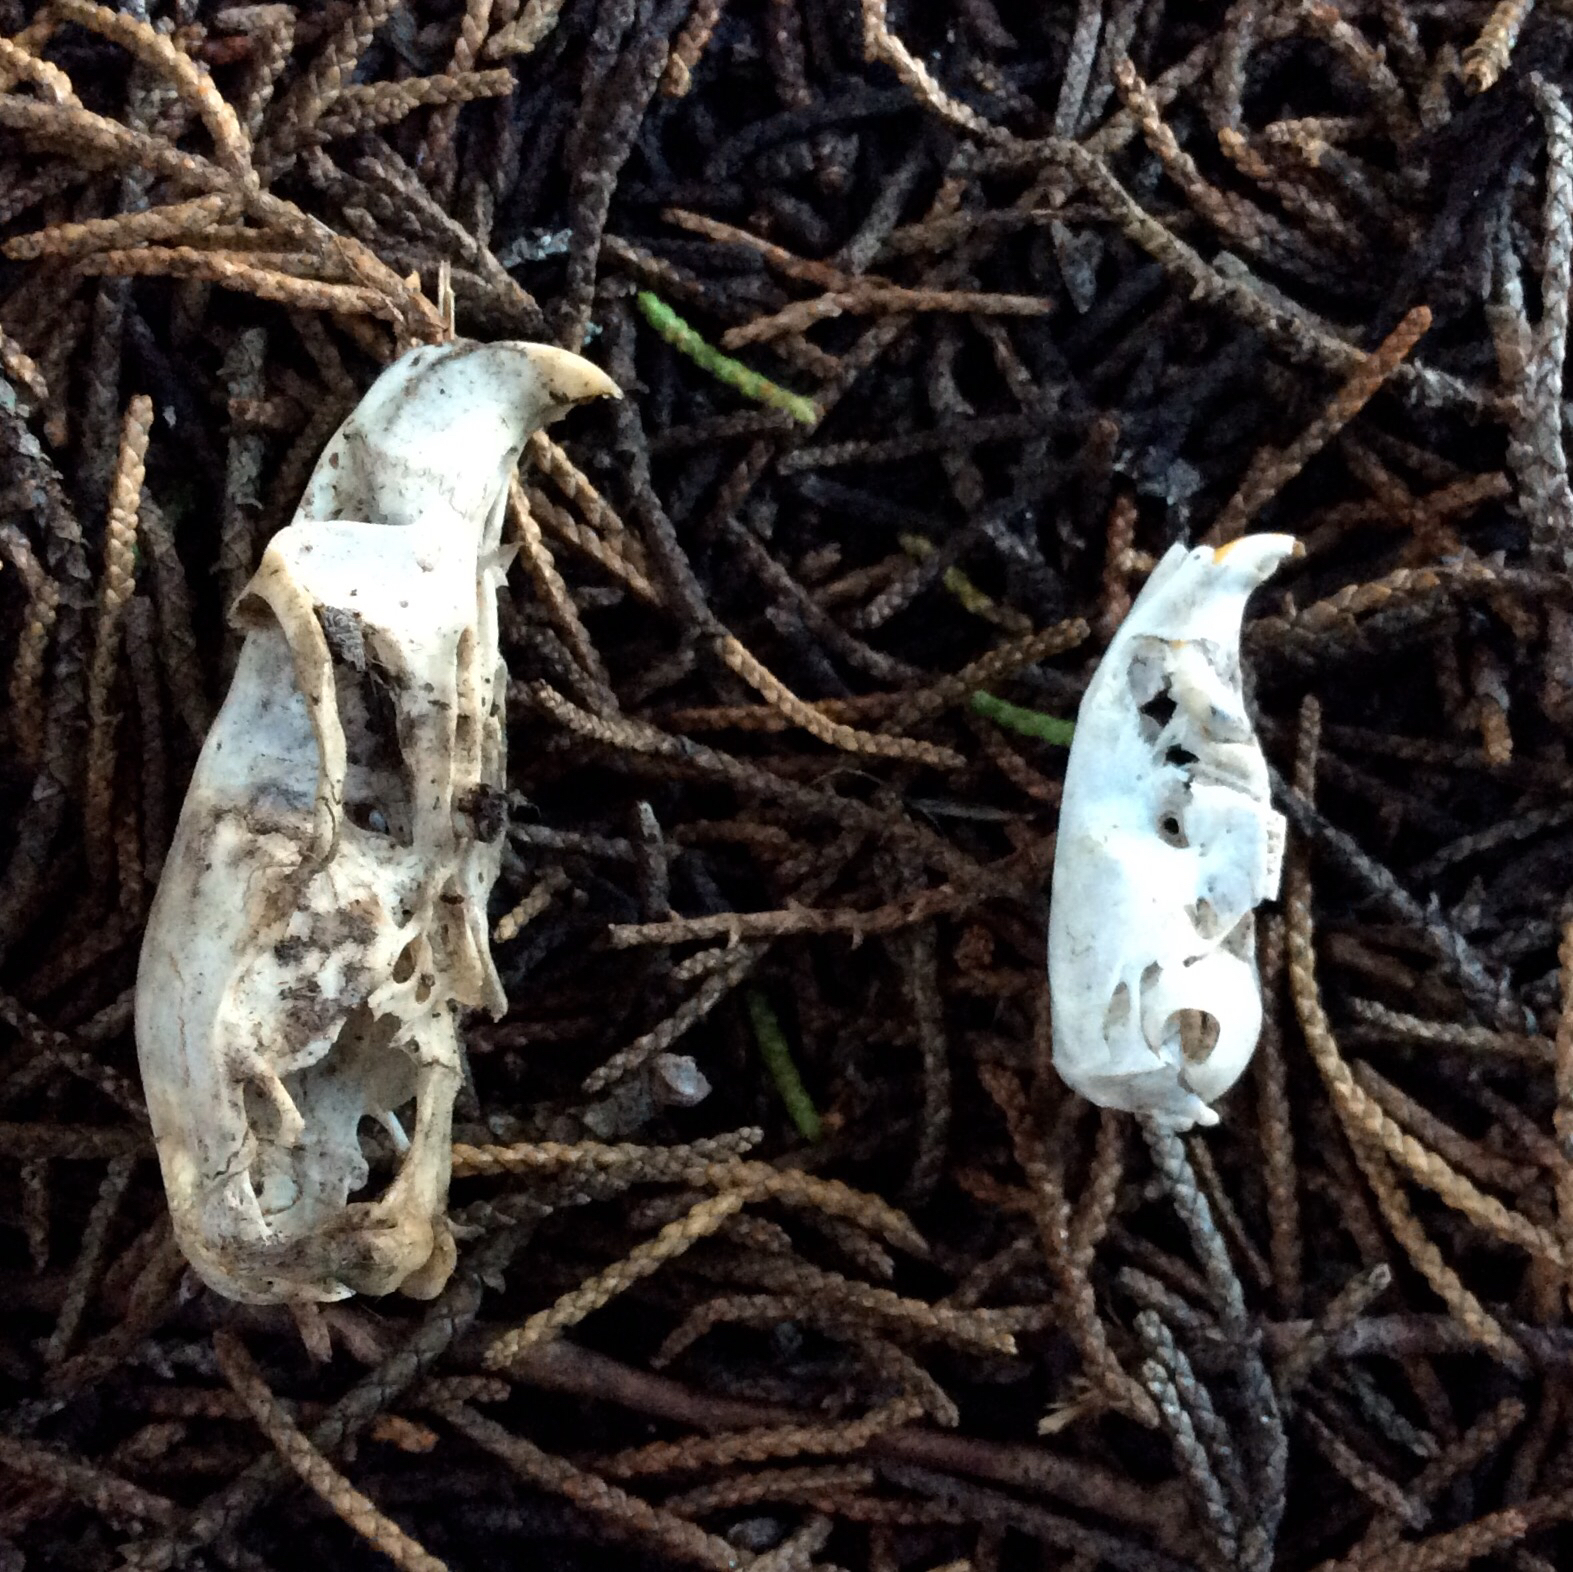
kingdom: Animalia
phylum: Chordata
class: Mammalia
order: Rodentia
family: Cricetidae
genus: Neotoma
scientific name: Neotoma fuscipes
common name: Dusky-footed woodrat
